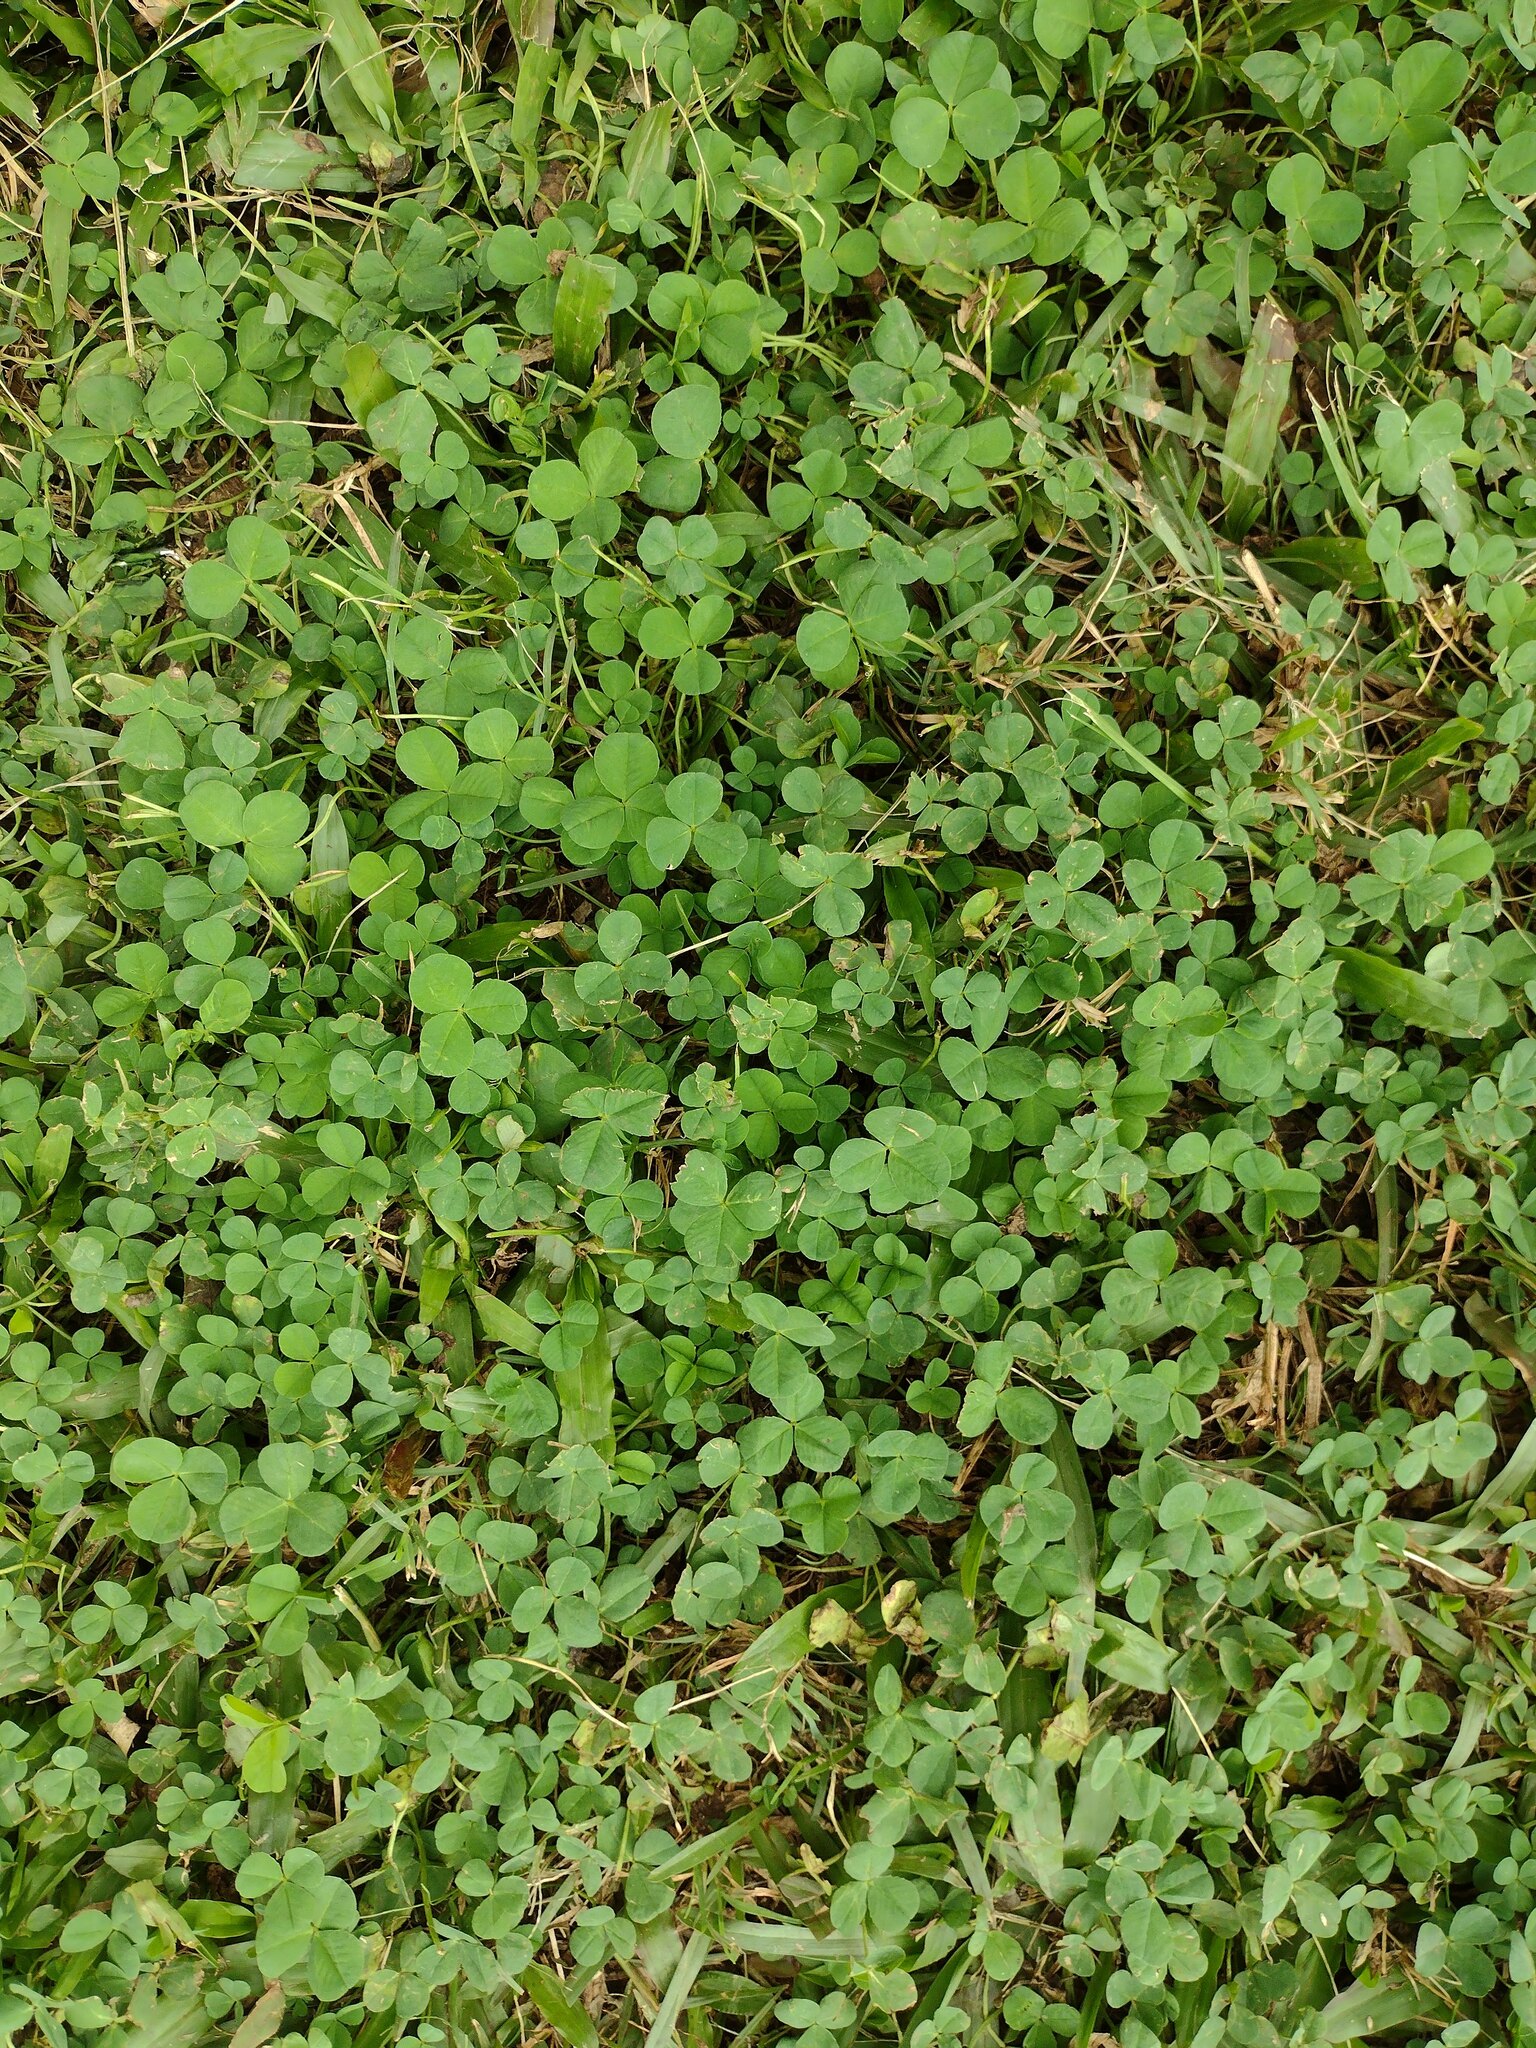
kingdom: Plantae
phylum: Tracheophyta
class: Magnoliopsida
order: Fabales
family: Fabaceae
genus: Trifolium
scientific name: Trifolium repens
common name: White clover
